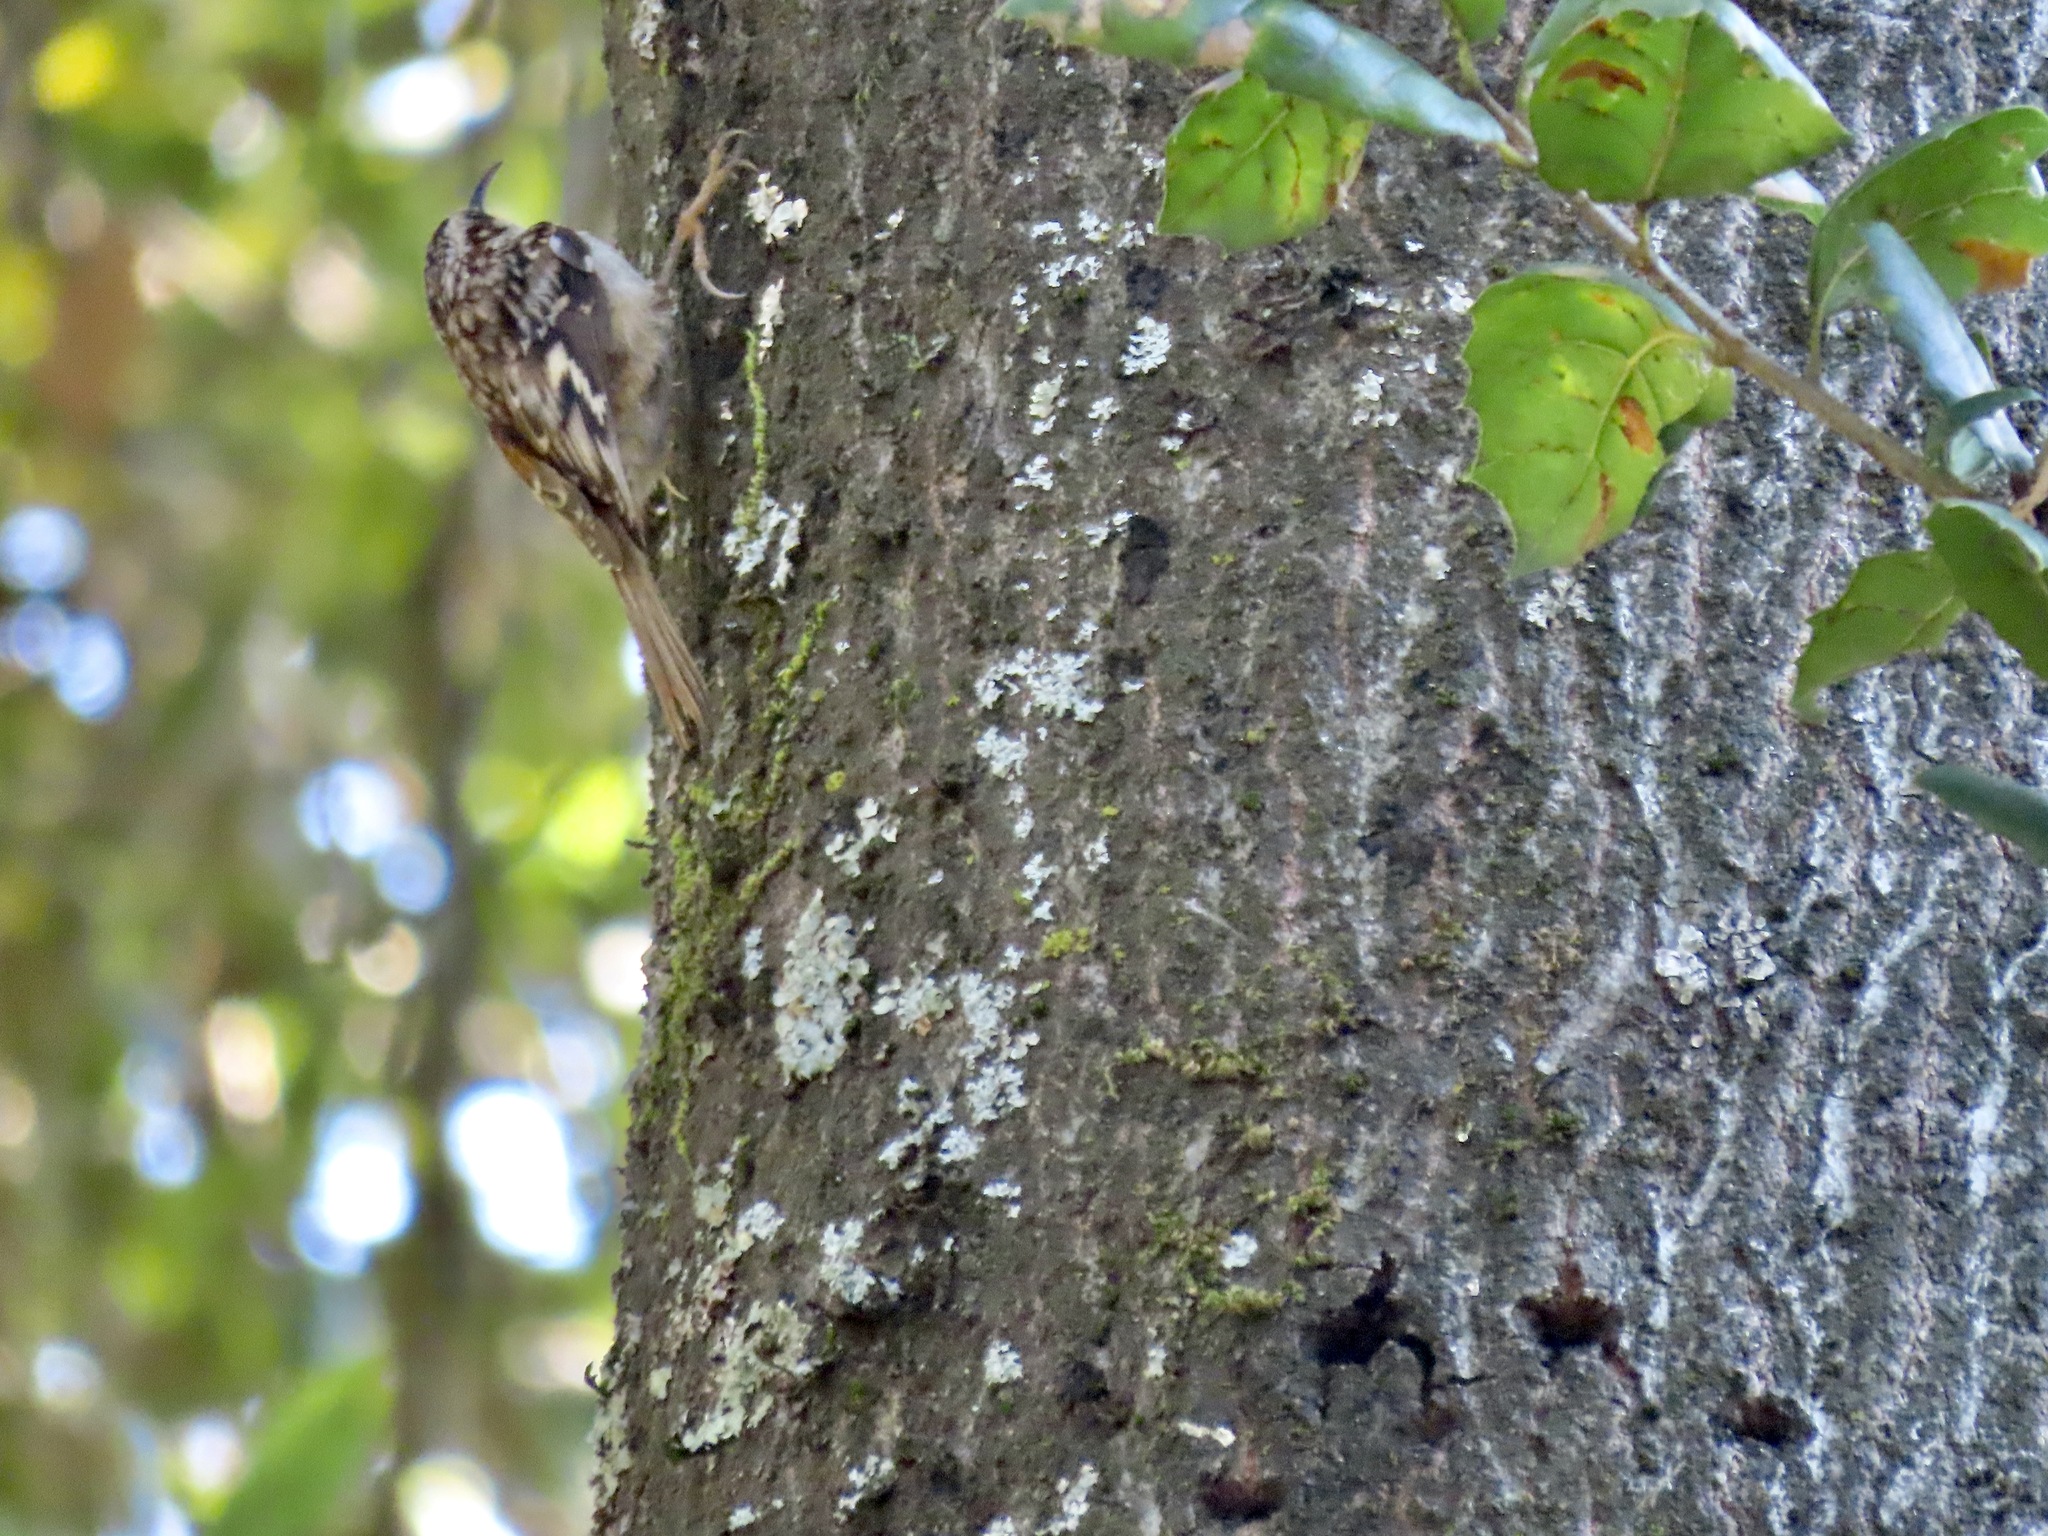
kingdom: Animalia
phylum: Chordata
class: Aves
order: Passeriformes
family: Certhiidae
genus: Certhia
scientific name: Certhia americana
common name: Brown creeper
